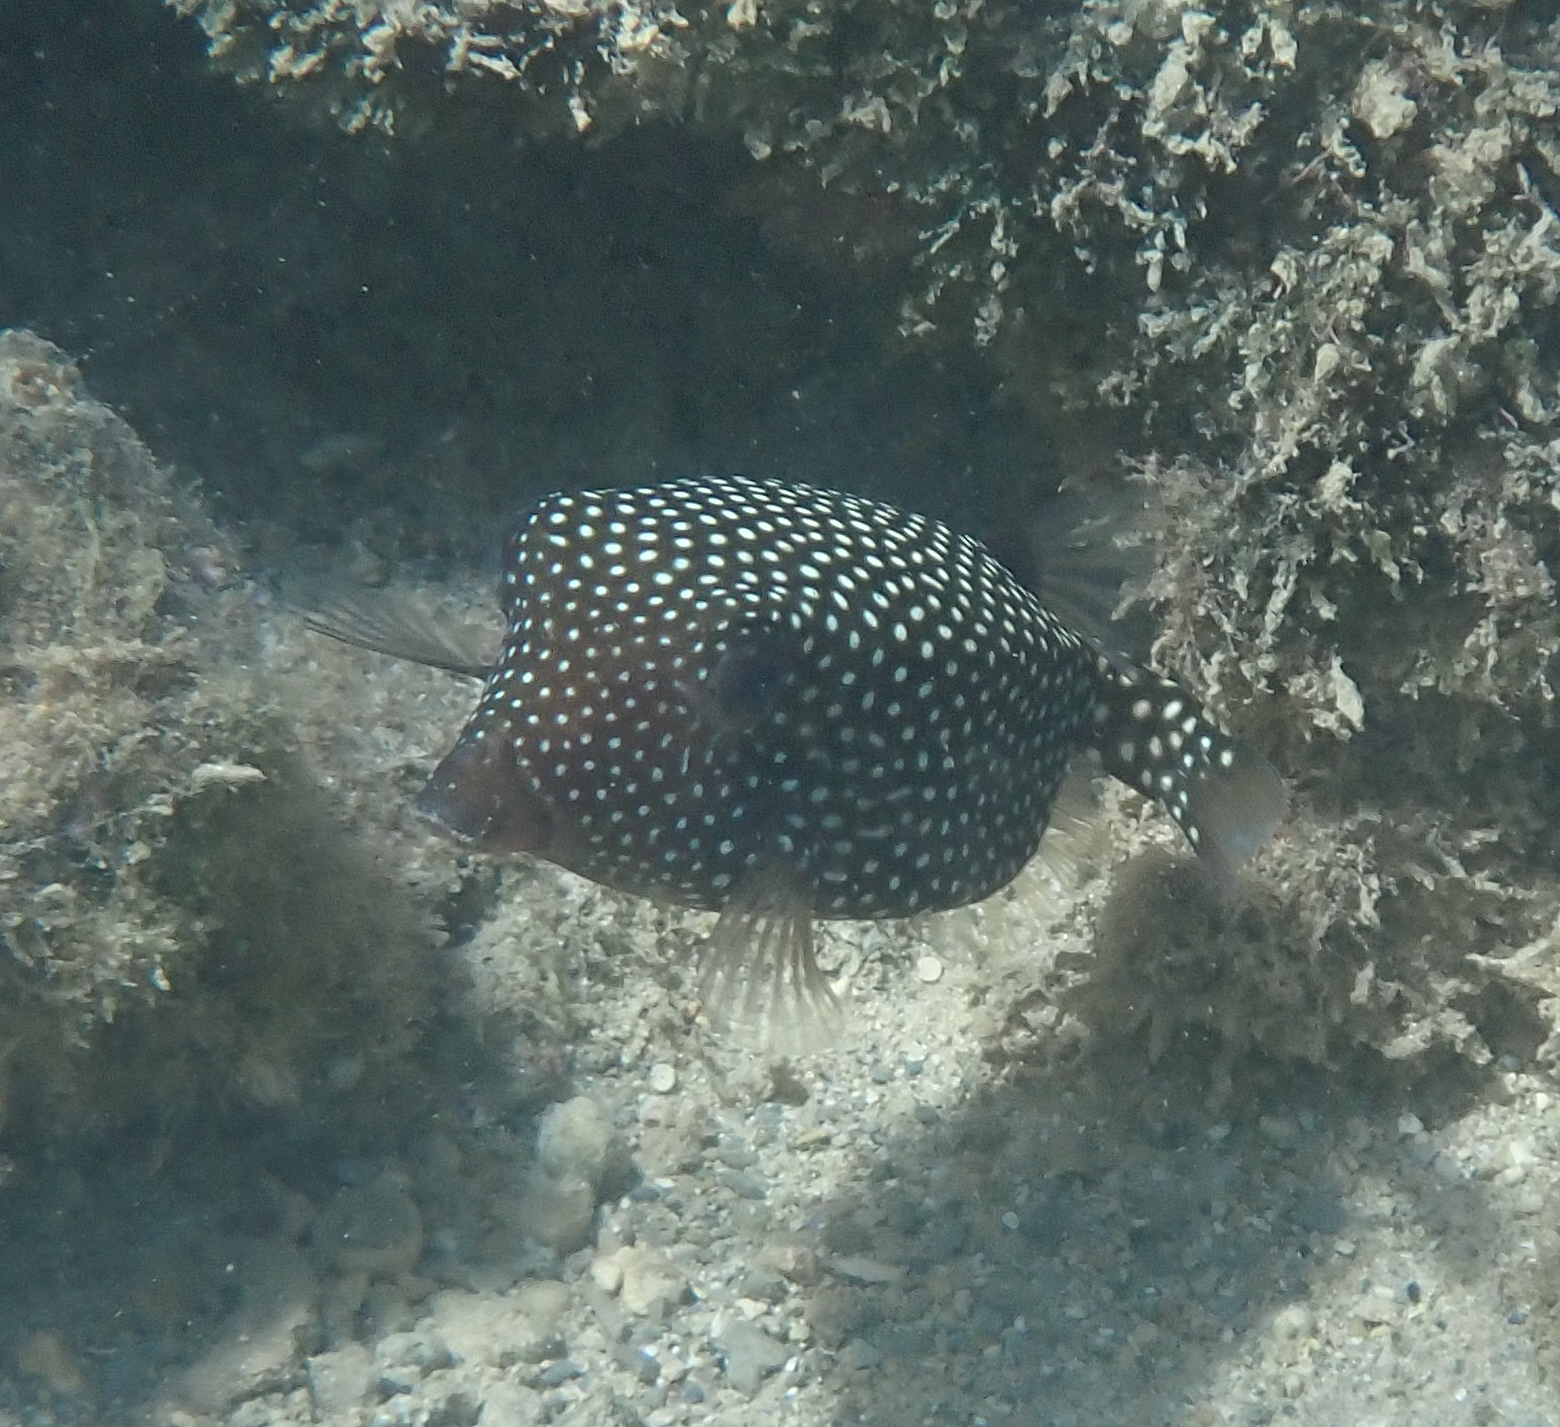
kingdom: Animalia
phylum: Chordata
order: Tetraodontiformes
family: Ostraciidae
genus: Ostracion
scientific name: Ostracion meleagris
